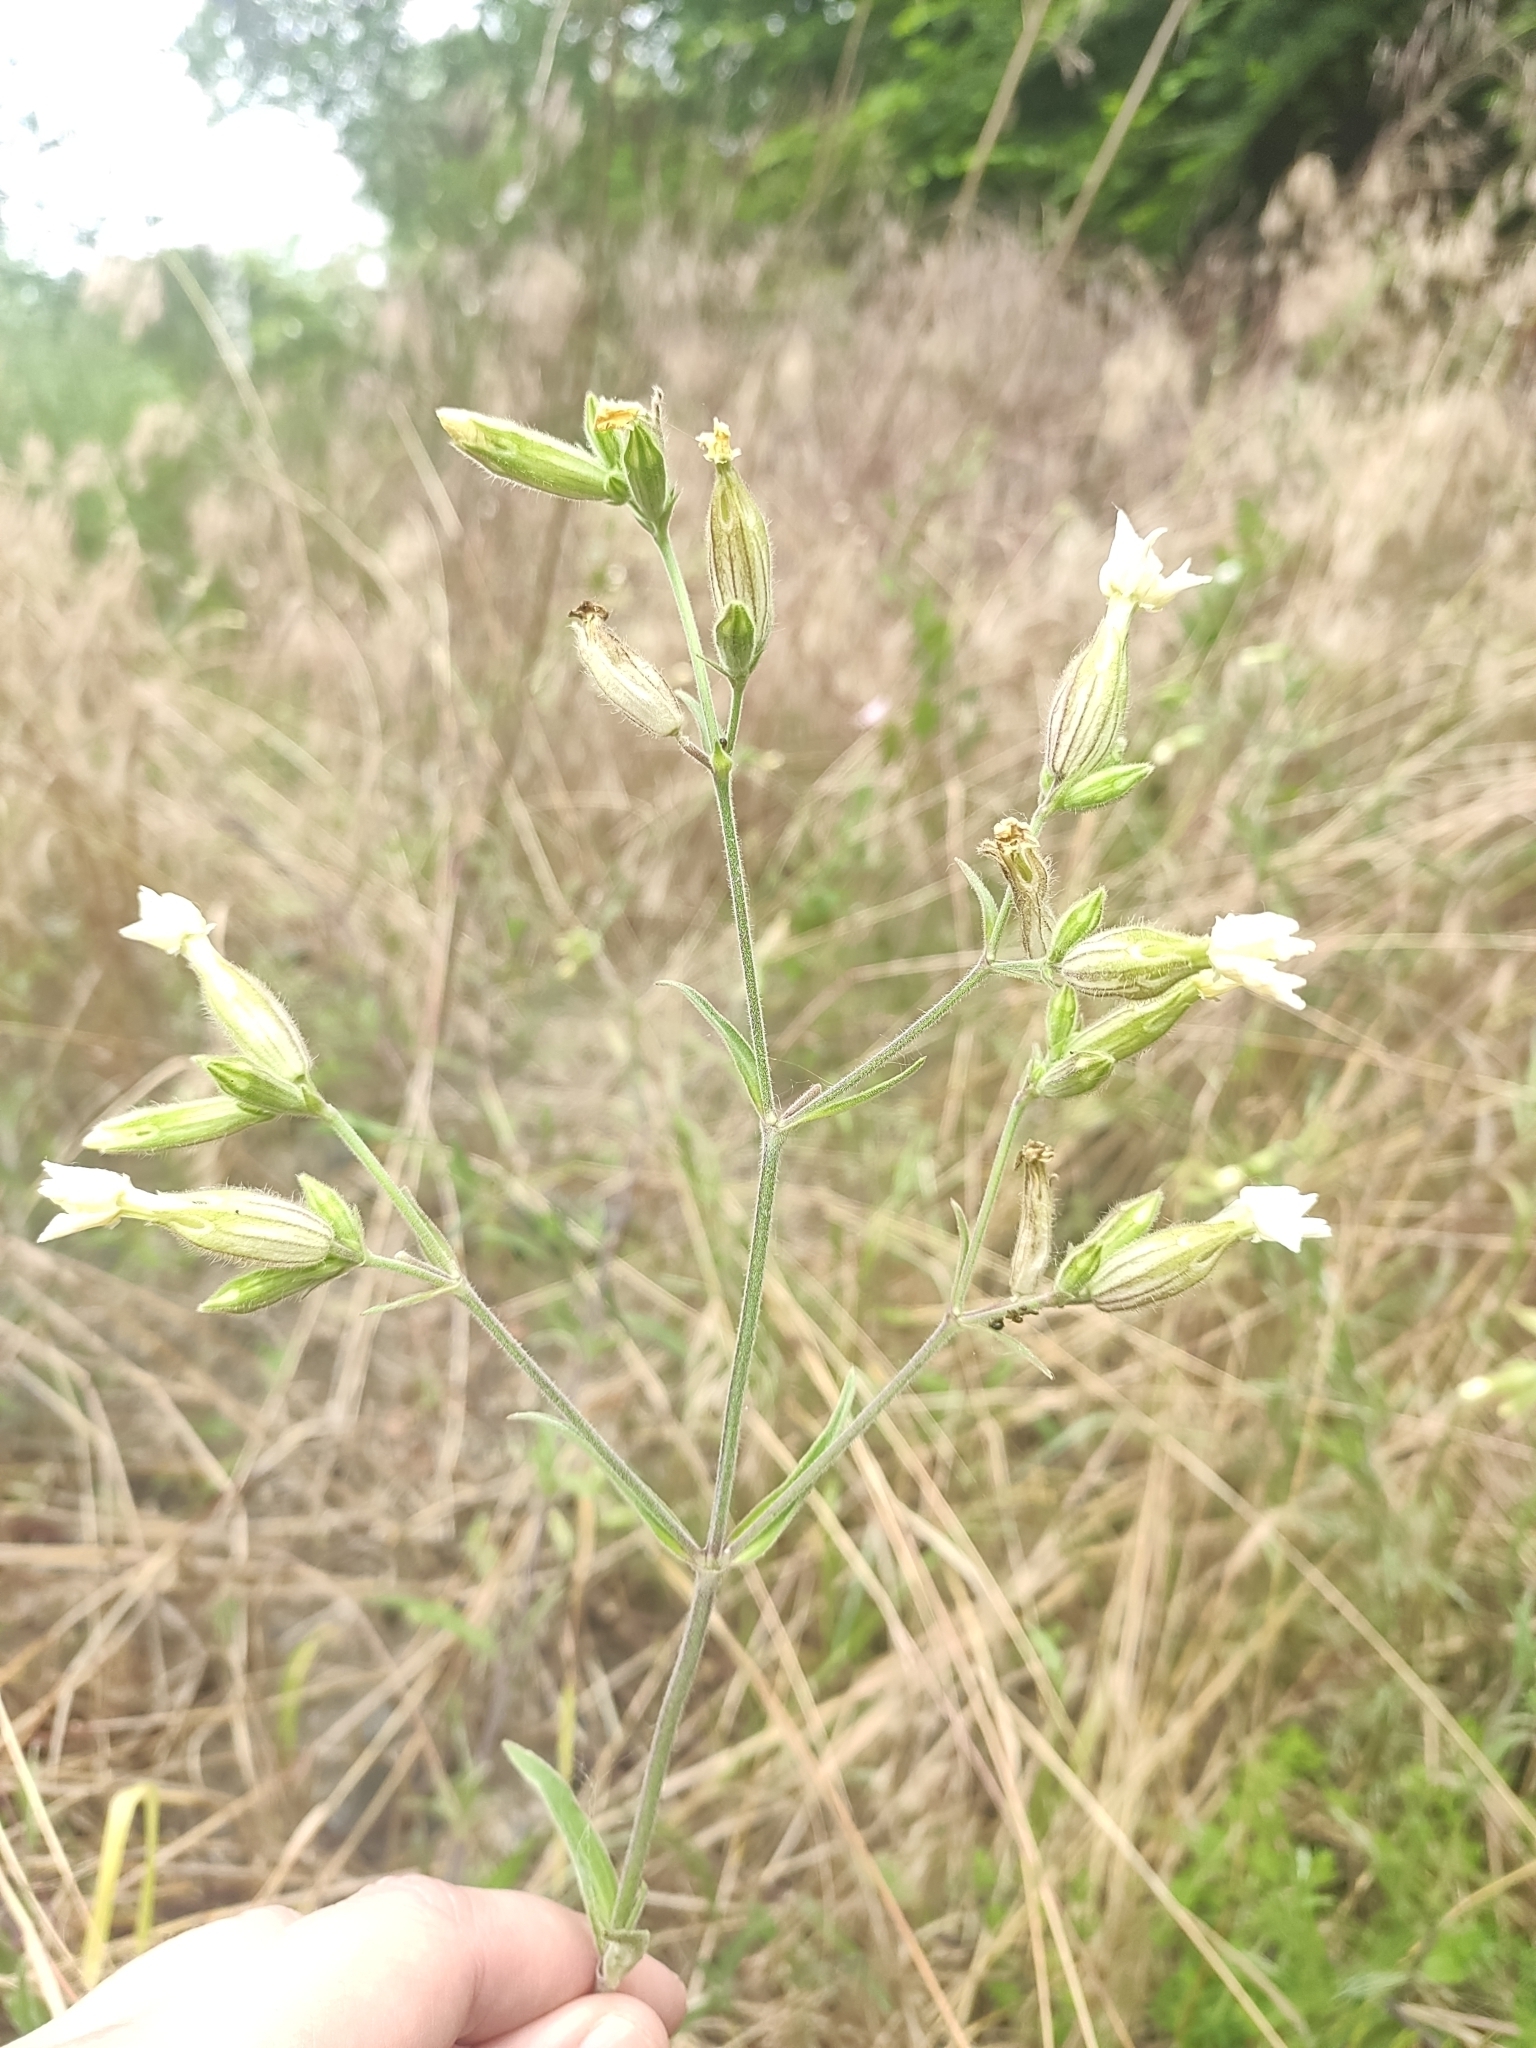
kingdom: Plantae
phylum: Tracheophyta
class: Magnoliopsida
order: Caryophyllales
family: Caryophyllaceae
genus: Silene
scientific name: Silene latifolia
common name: White campion
